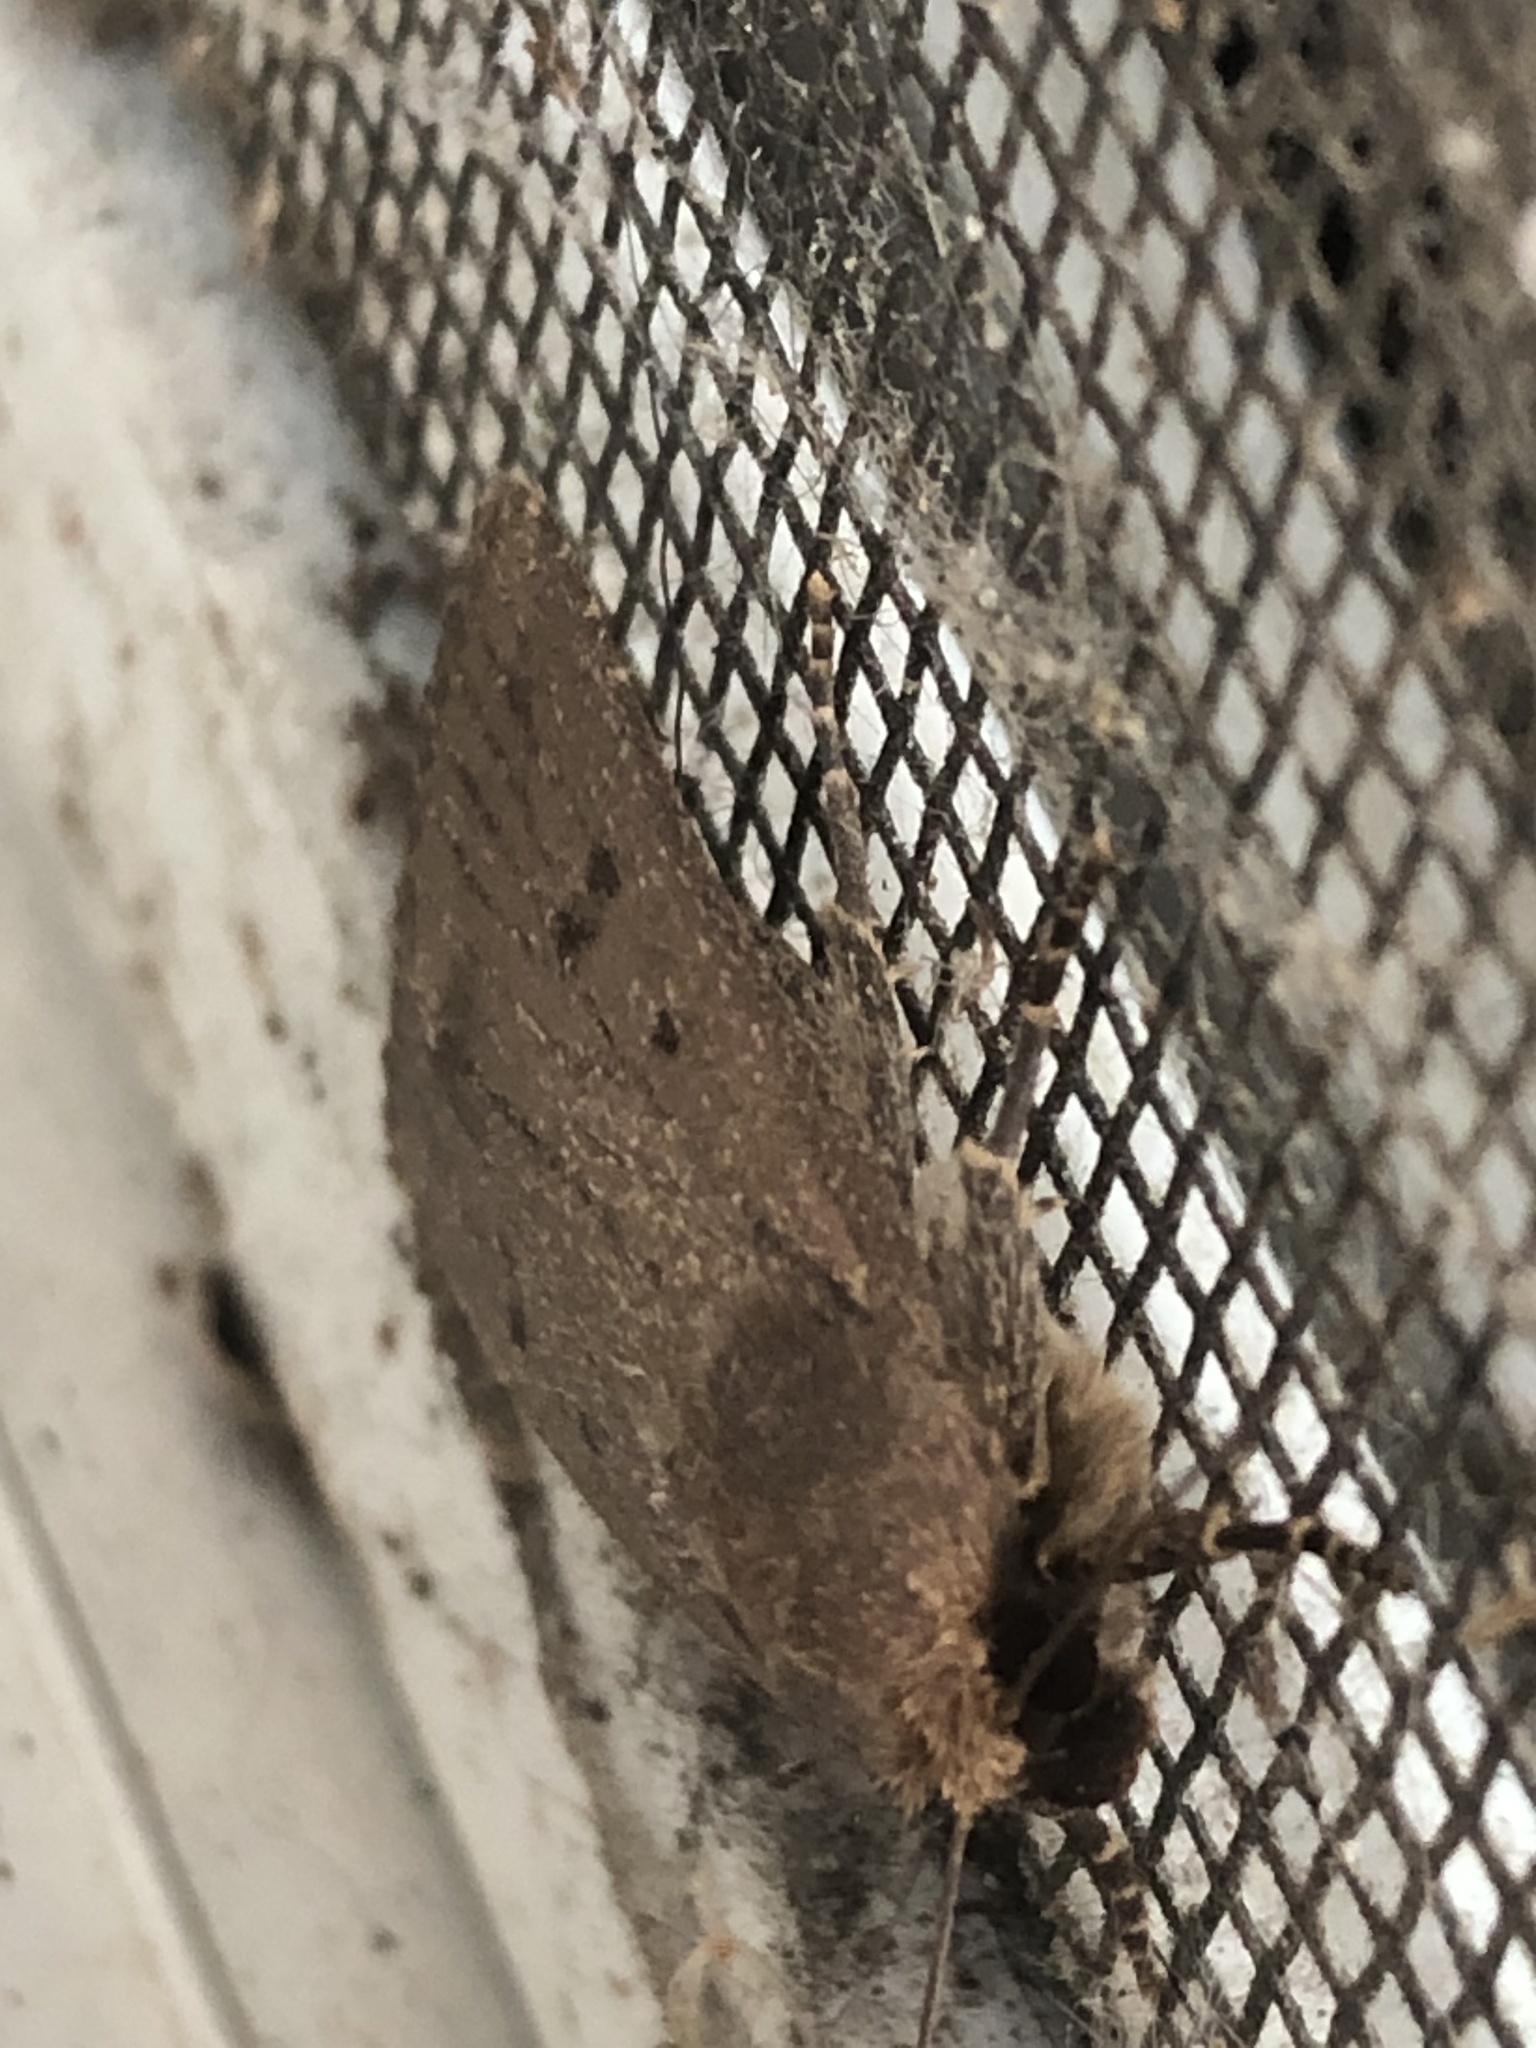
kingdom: Animalia
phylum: Arthropoda
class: Insecta
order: Lepidoptera
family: Noctuidae
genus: Amphipyra
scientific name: Amphipyra tragopoginis
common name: Mouse moth
